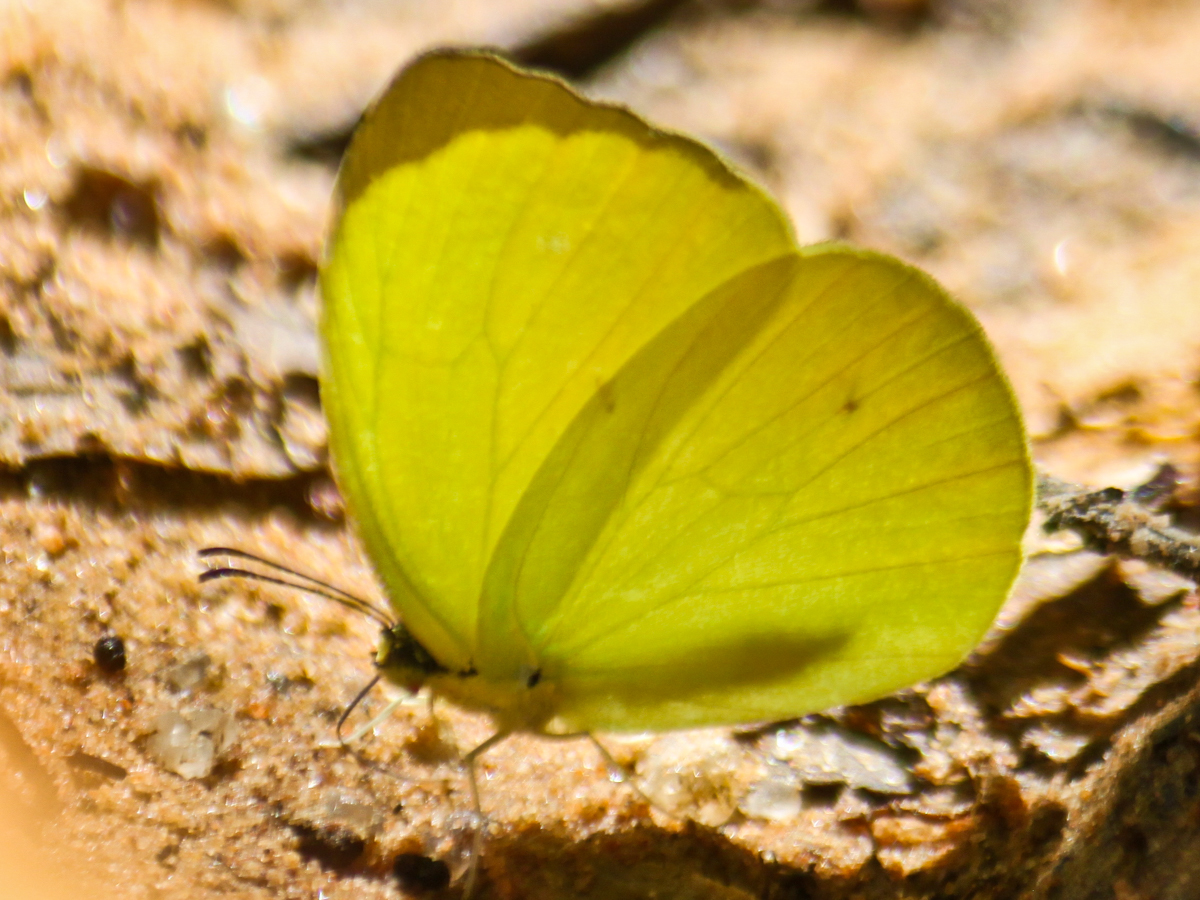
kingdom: Animalia
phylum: Arthropoda
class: Insecta
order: Lepidoptera
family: Pieridae
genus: Gandaca
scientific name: Gandaca harina
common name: Tree yellow
